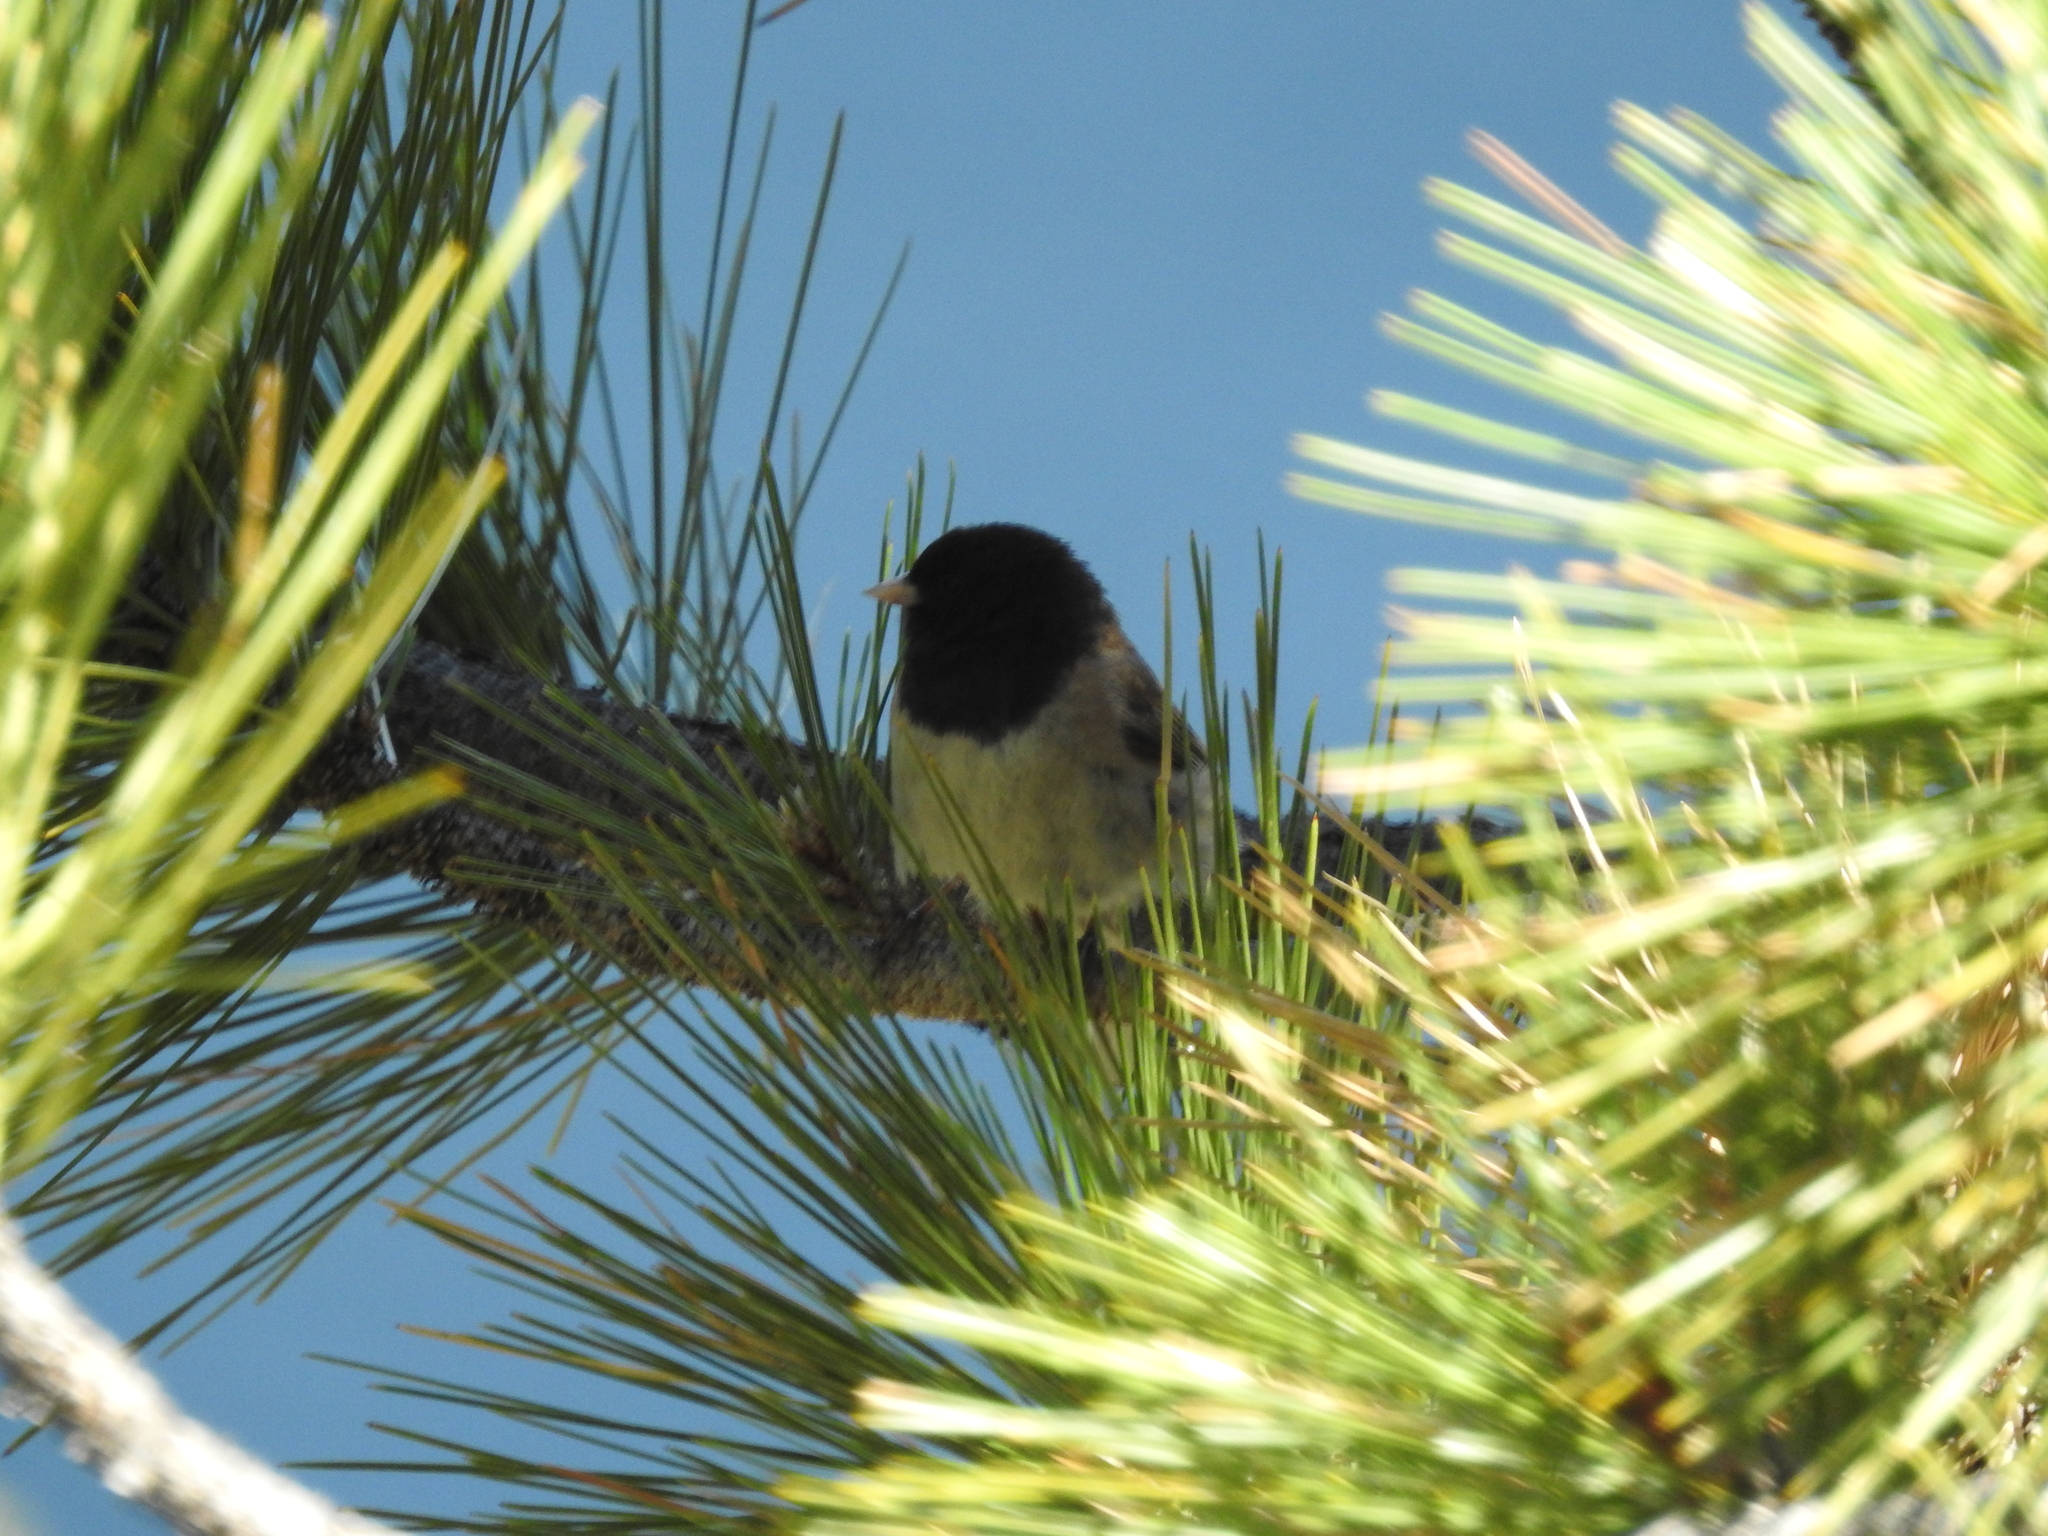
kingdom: Animalia
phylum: Chordata
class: Aves
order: Passeriformes
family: Passerellidae
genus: Junco
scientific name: Junco hyemalis
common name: Dark-eyed junco
